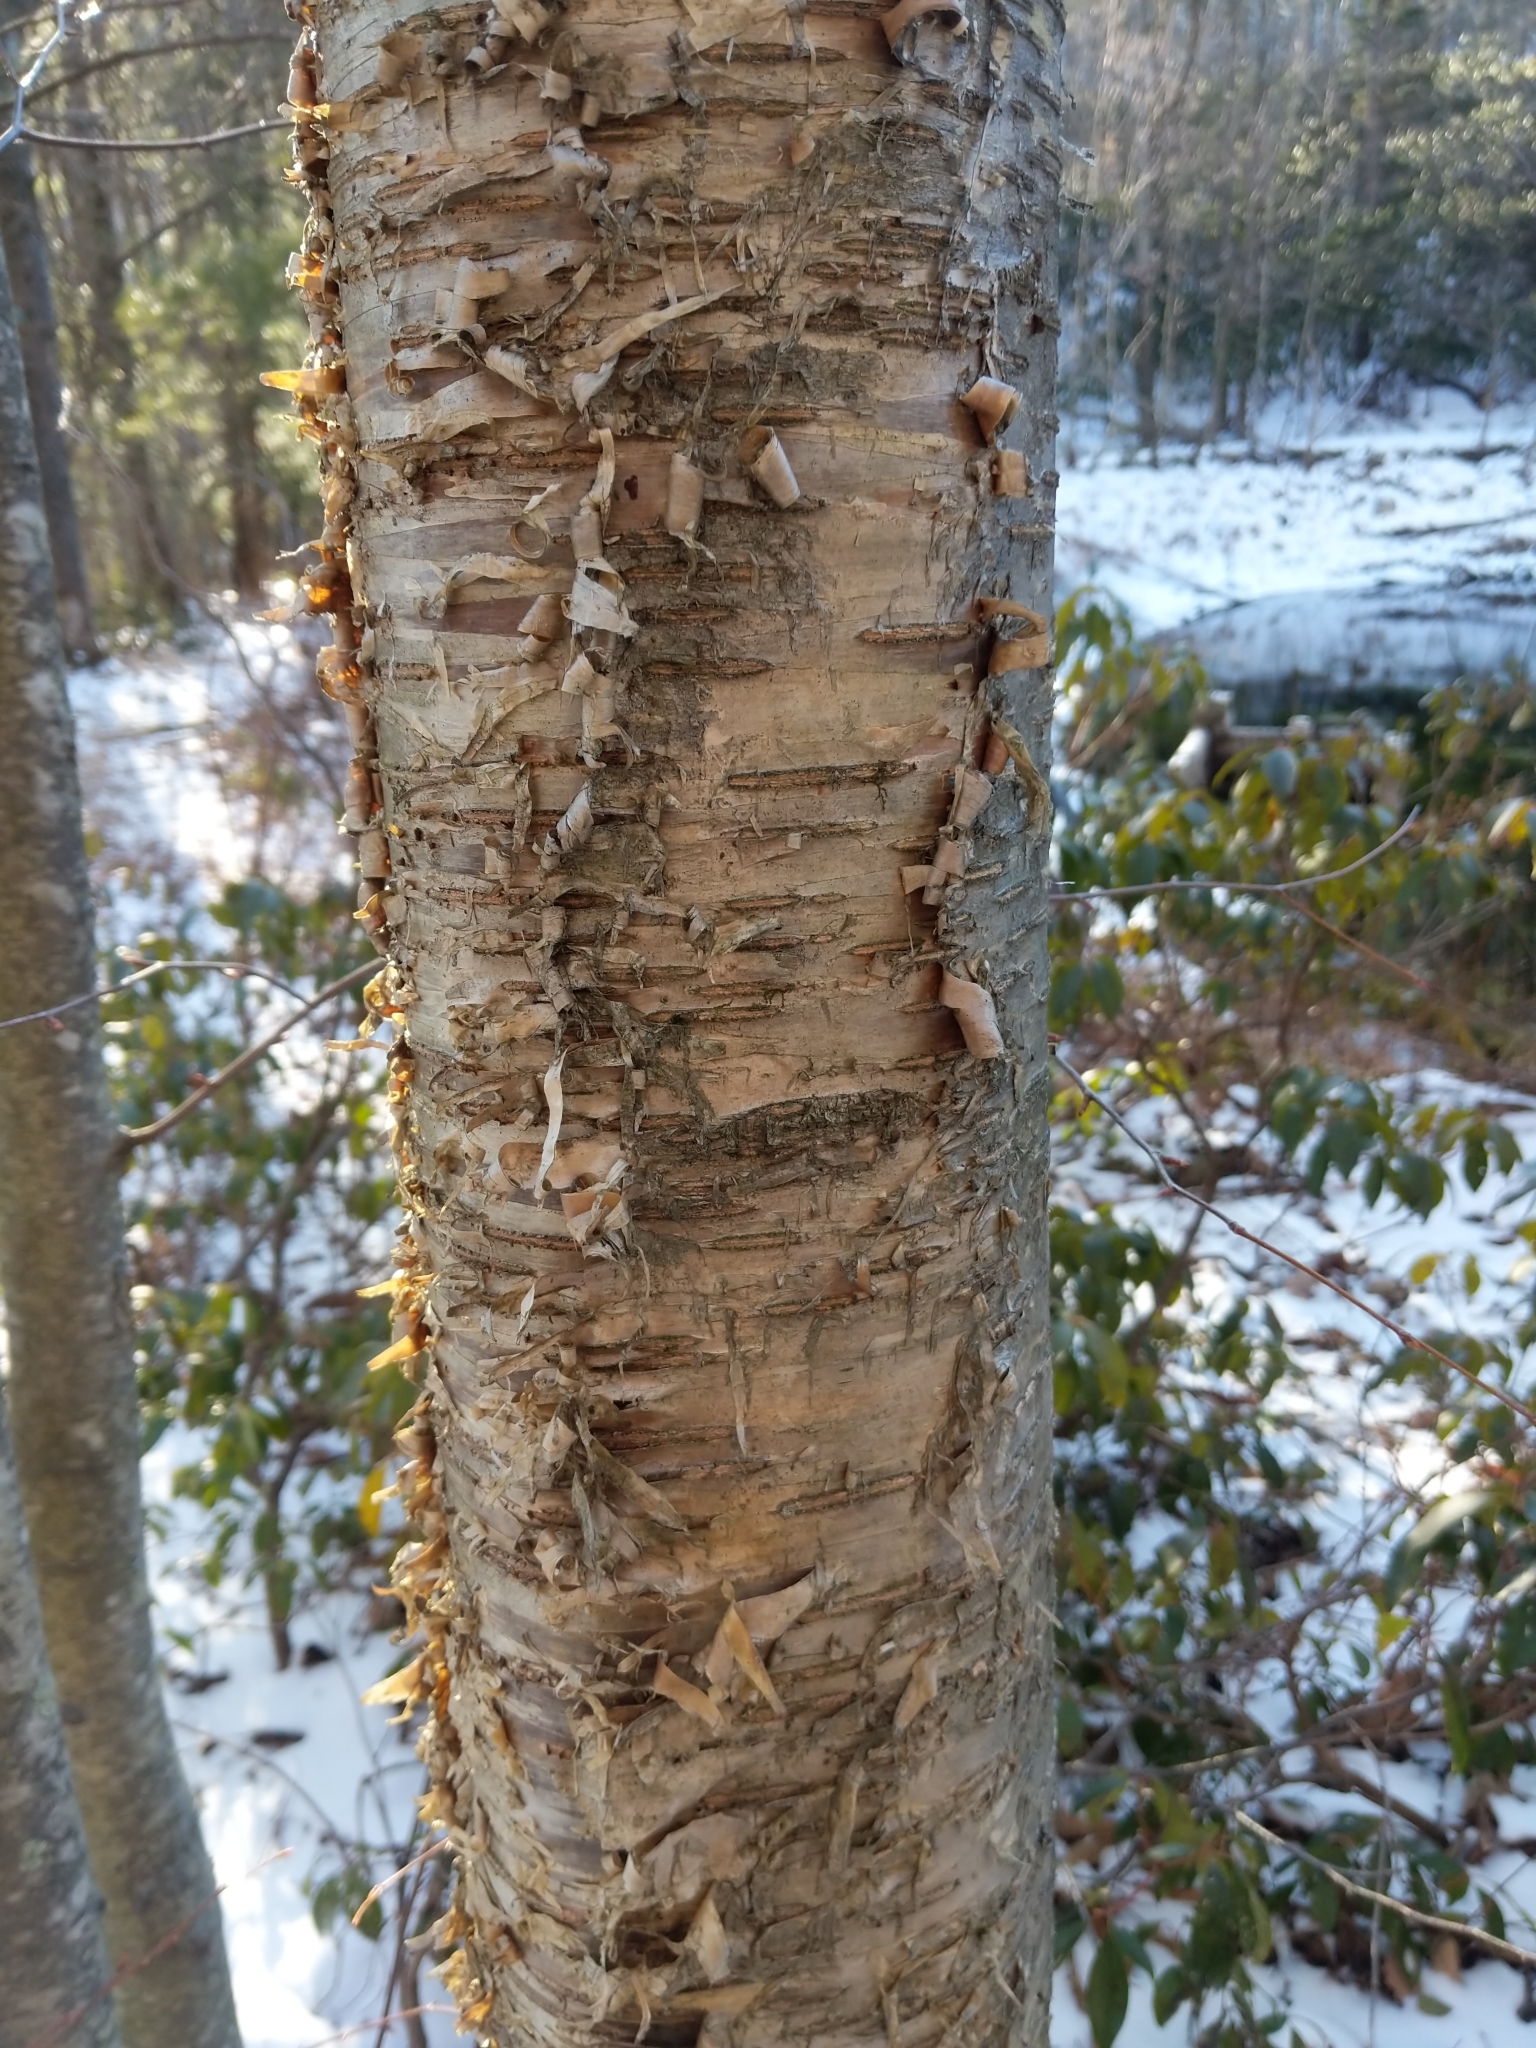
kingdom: Plantae
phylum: Tracheophyta
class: Magnoliopsida
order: Fagales
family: Betulaceae
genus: Betula
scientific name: Betula alleghaniensis
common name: Yellow birch
